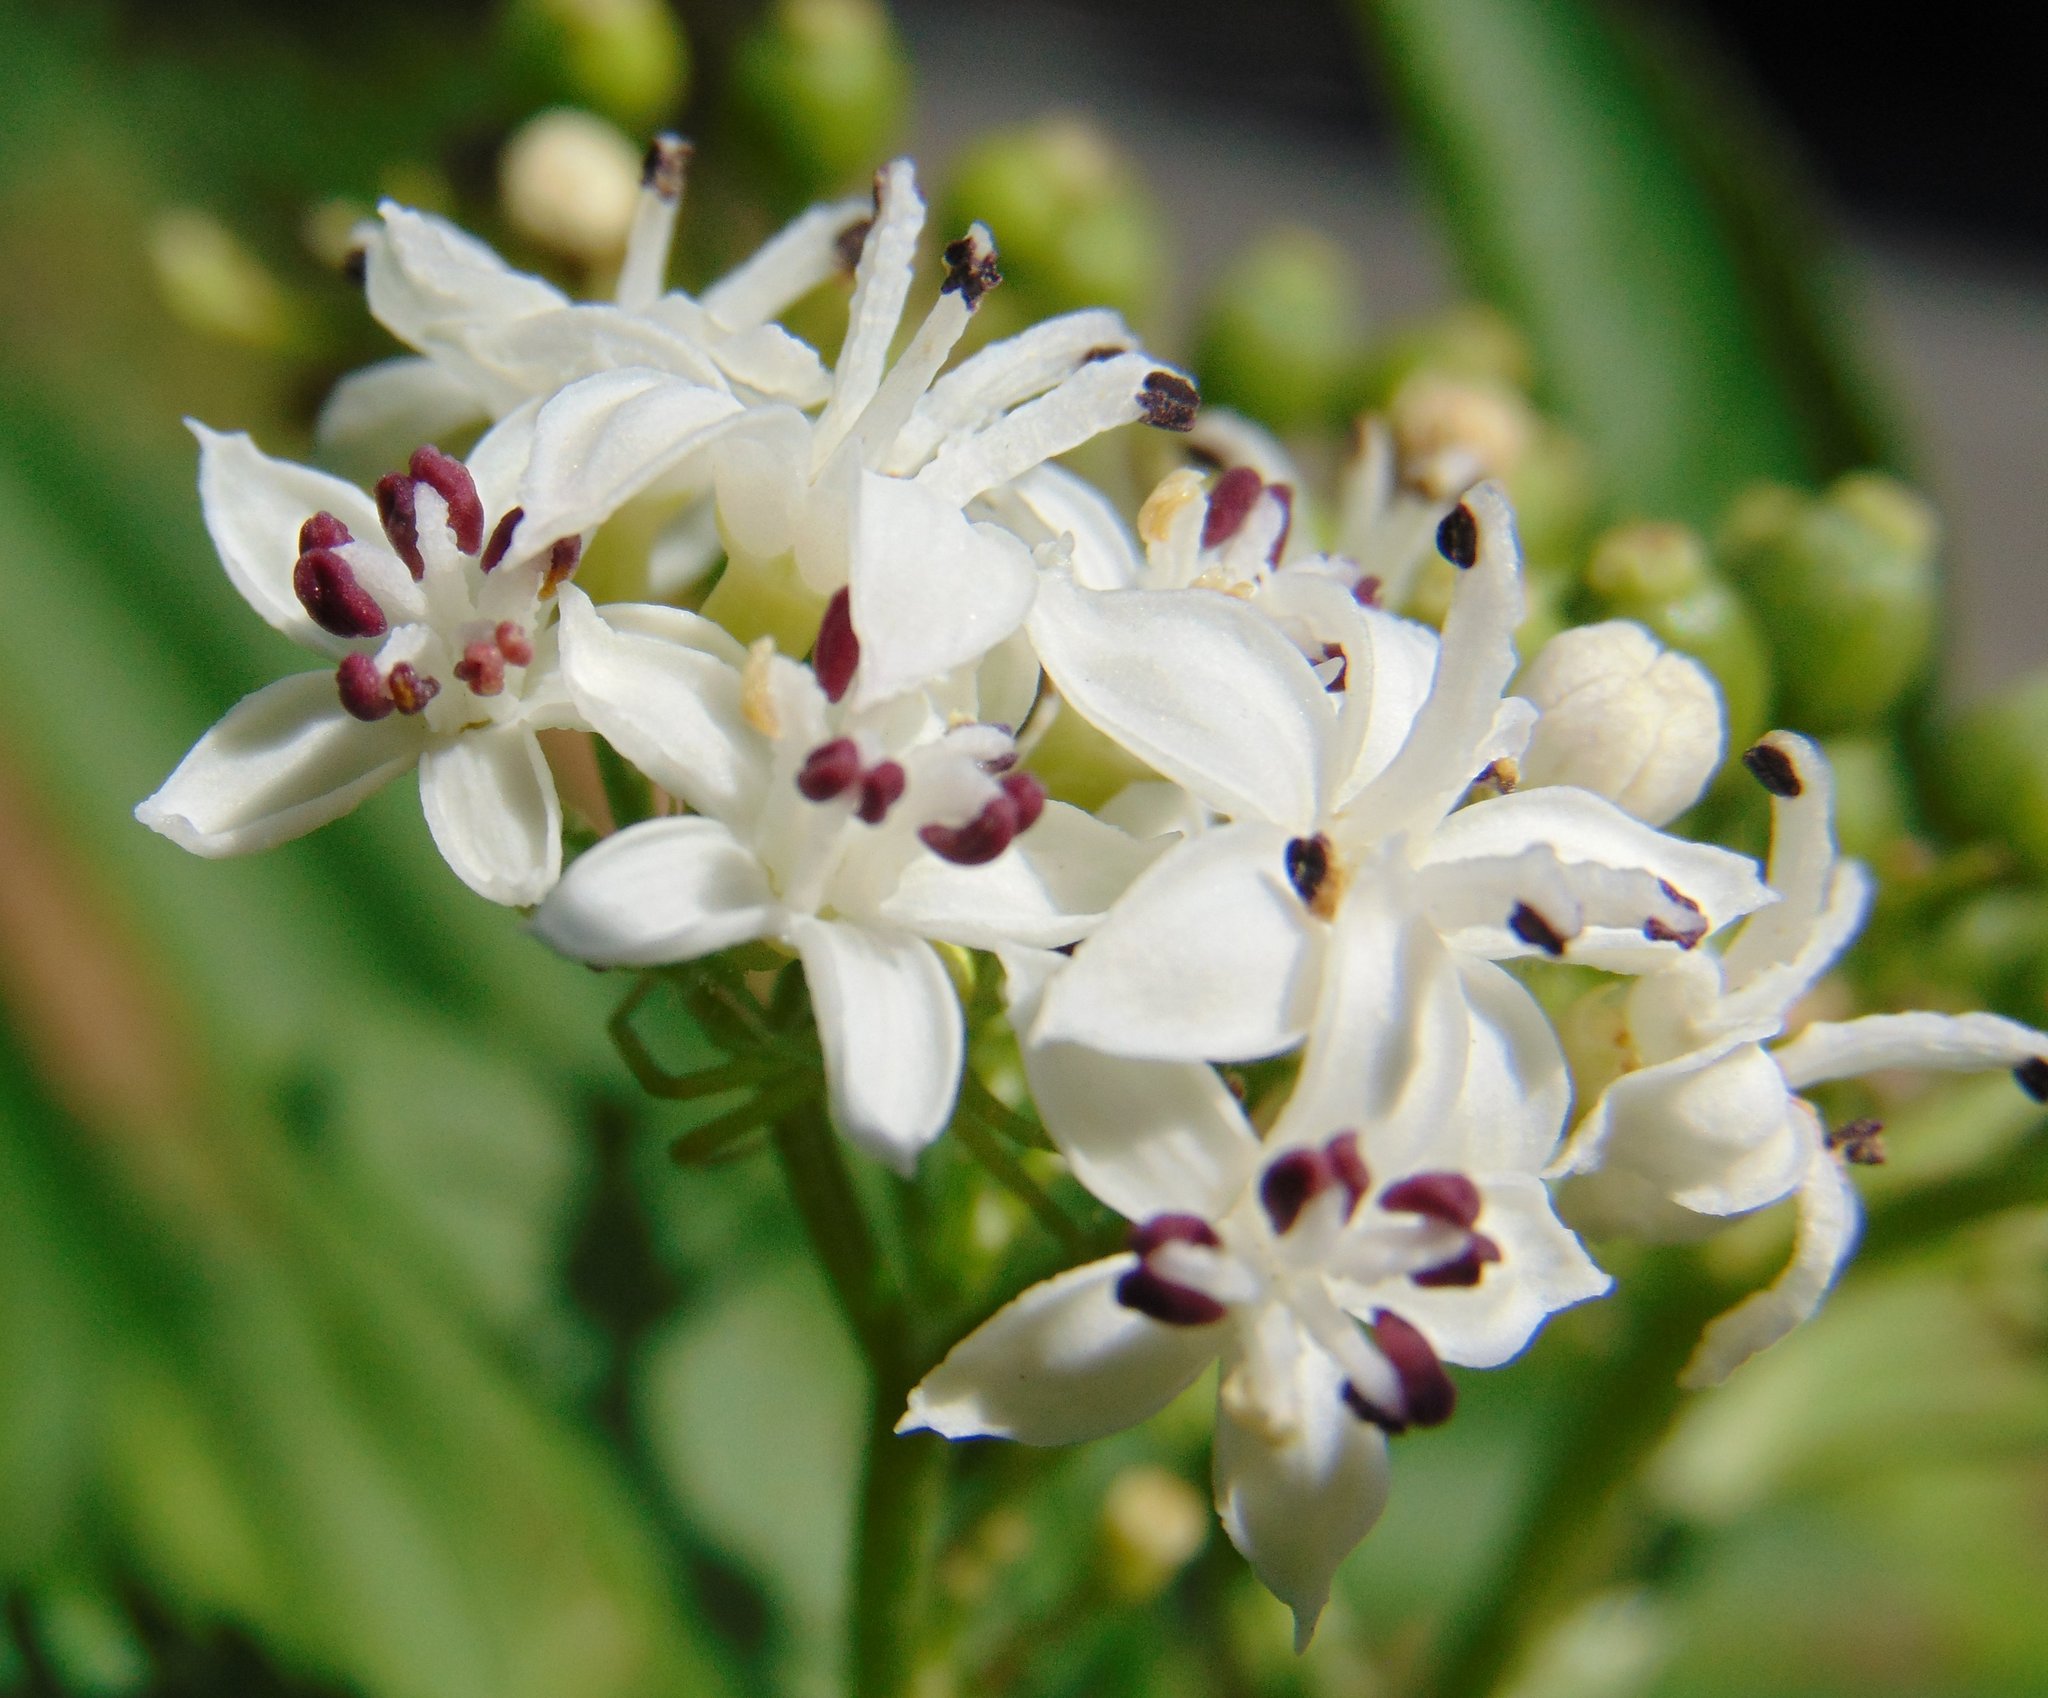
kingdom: Plantae
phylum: Tracheophyta
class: Magnoliopsida
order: Dipsacales
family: Viburnaceae
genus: Sambucus
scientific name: Sambucus ebulus
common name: Dwarf elder
